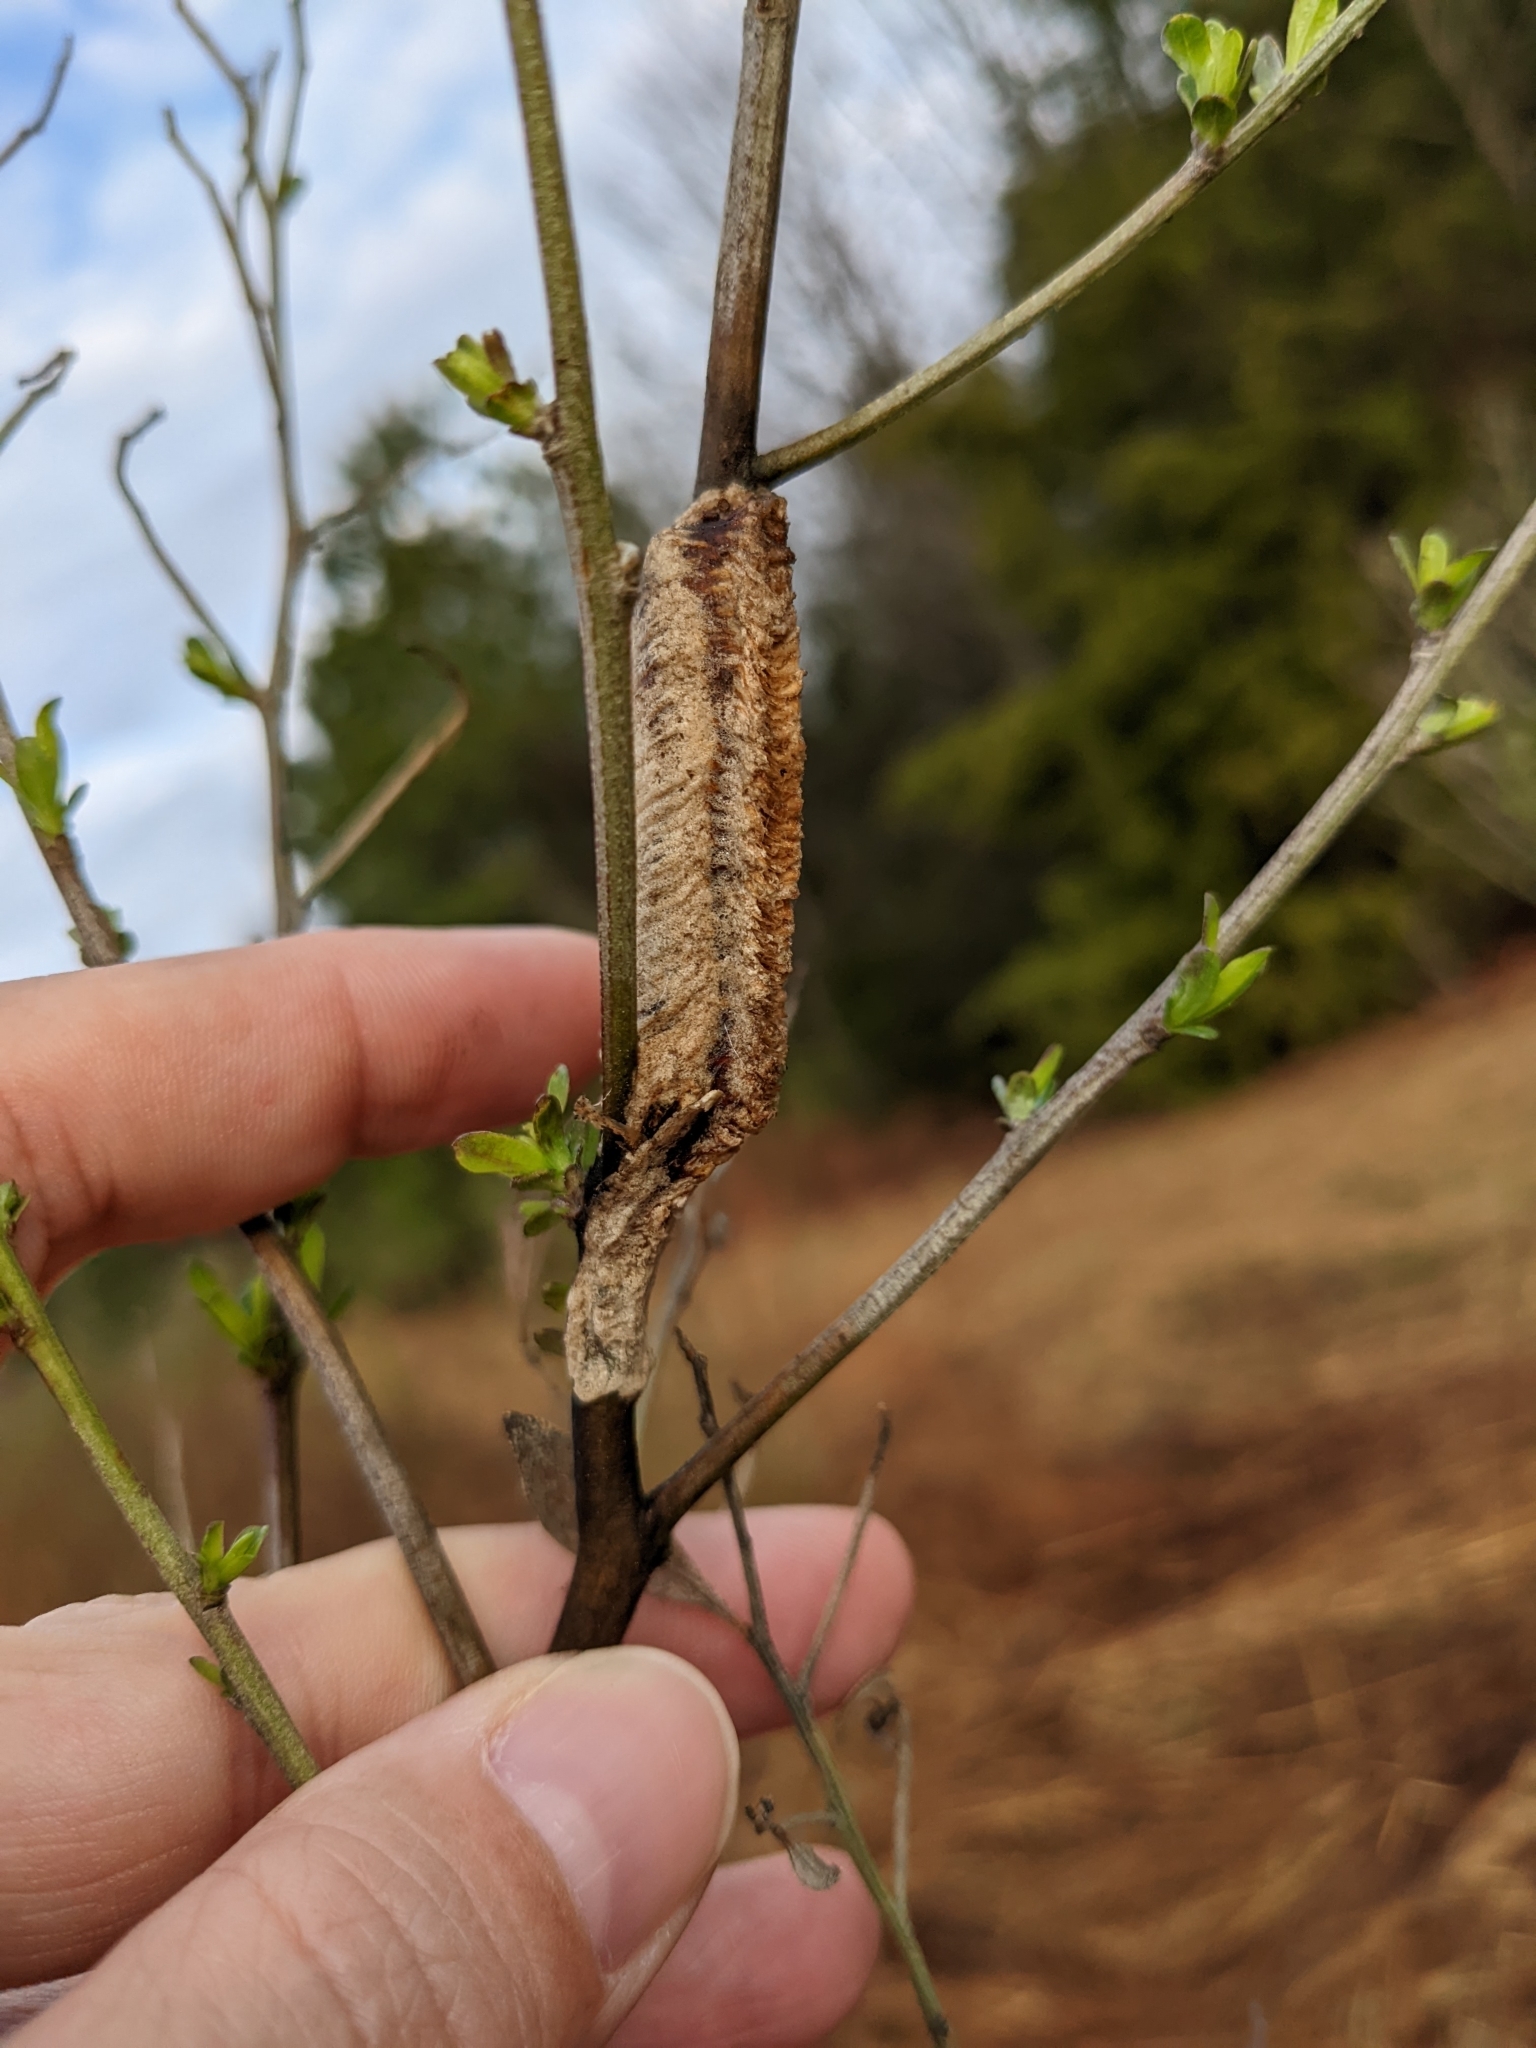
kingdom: Animalia
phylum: Arthropoda
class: Insecta
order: Mantodea
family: Mantidae
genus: Tenodera
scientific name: Tenodera angustipennis
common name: Asian mantis
